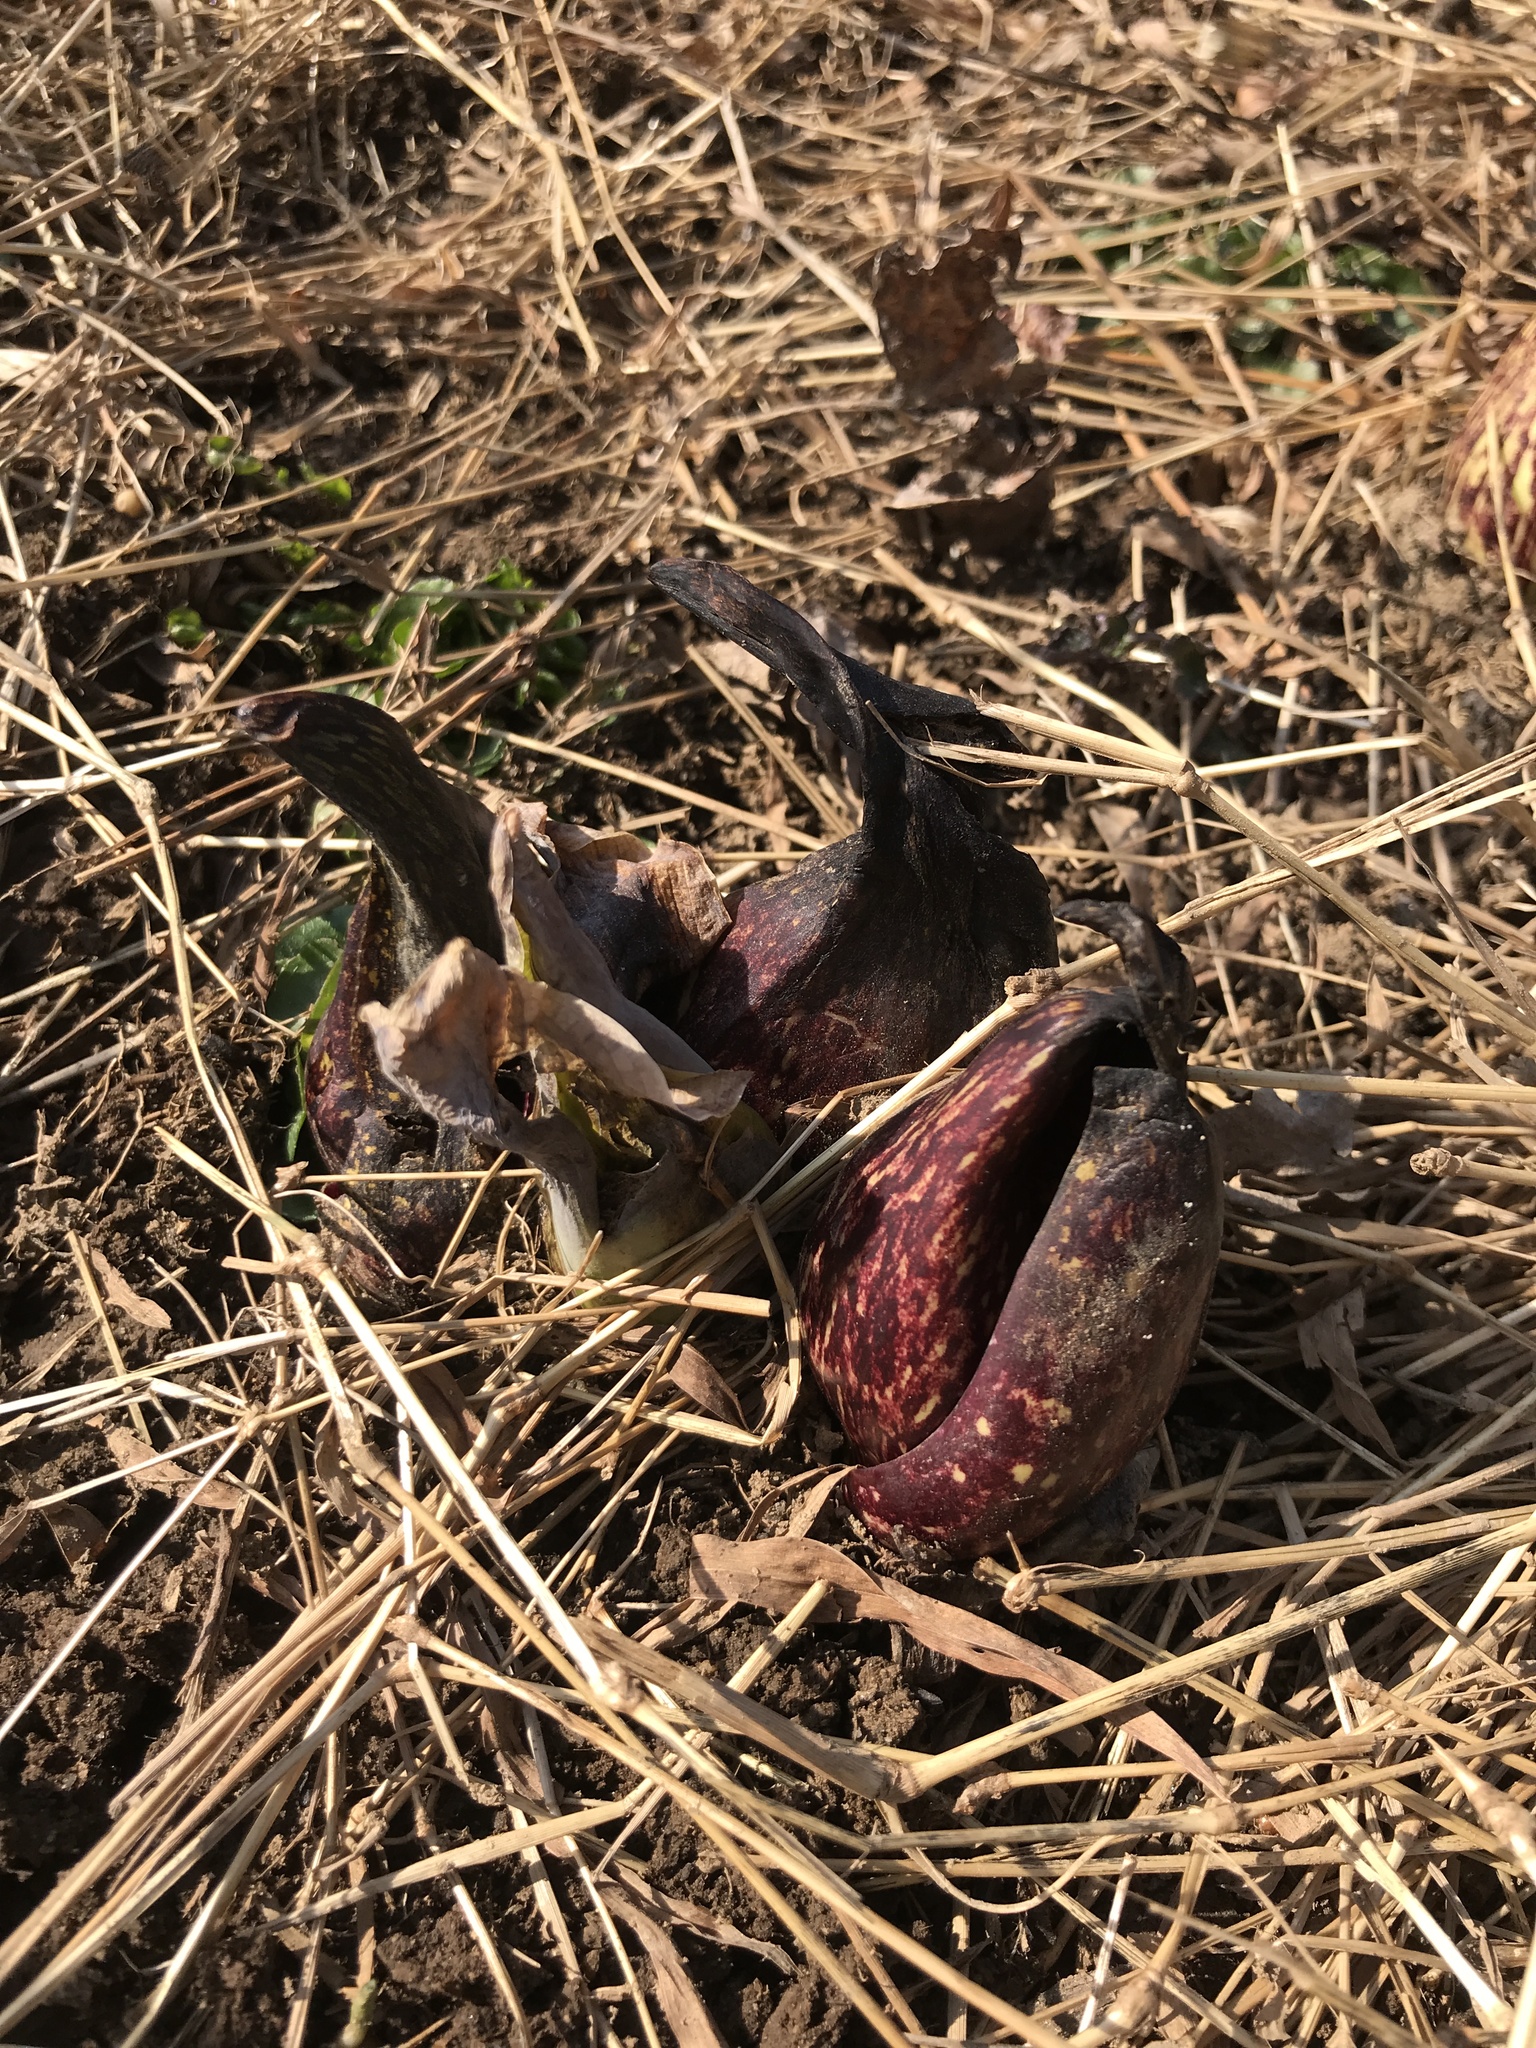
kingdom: Plantae
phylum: Tracheophyta
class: Liliopsida
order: Alismatales
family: Araceae
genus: Symplocarpus
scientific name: Symplocarpus foetidus
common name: Eastern skunk cabbage
